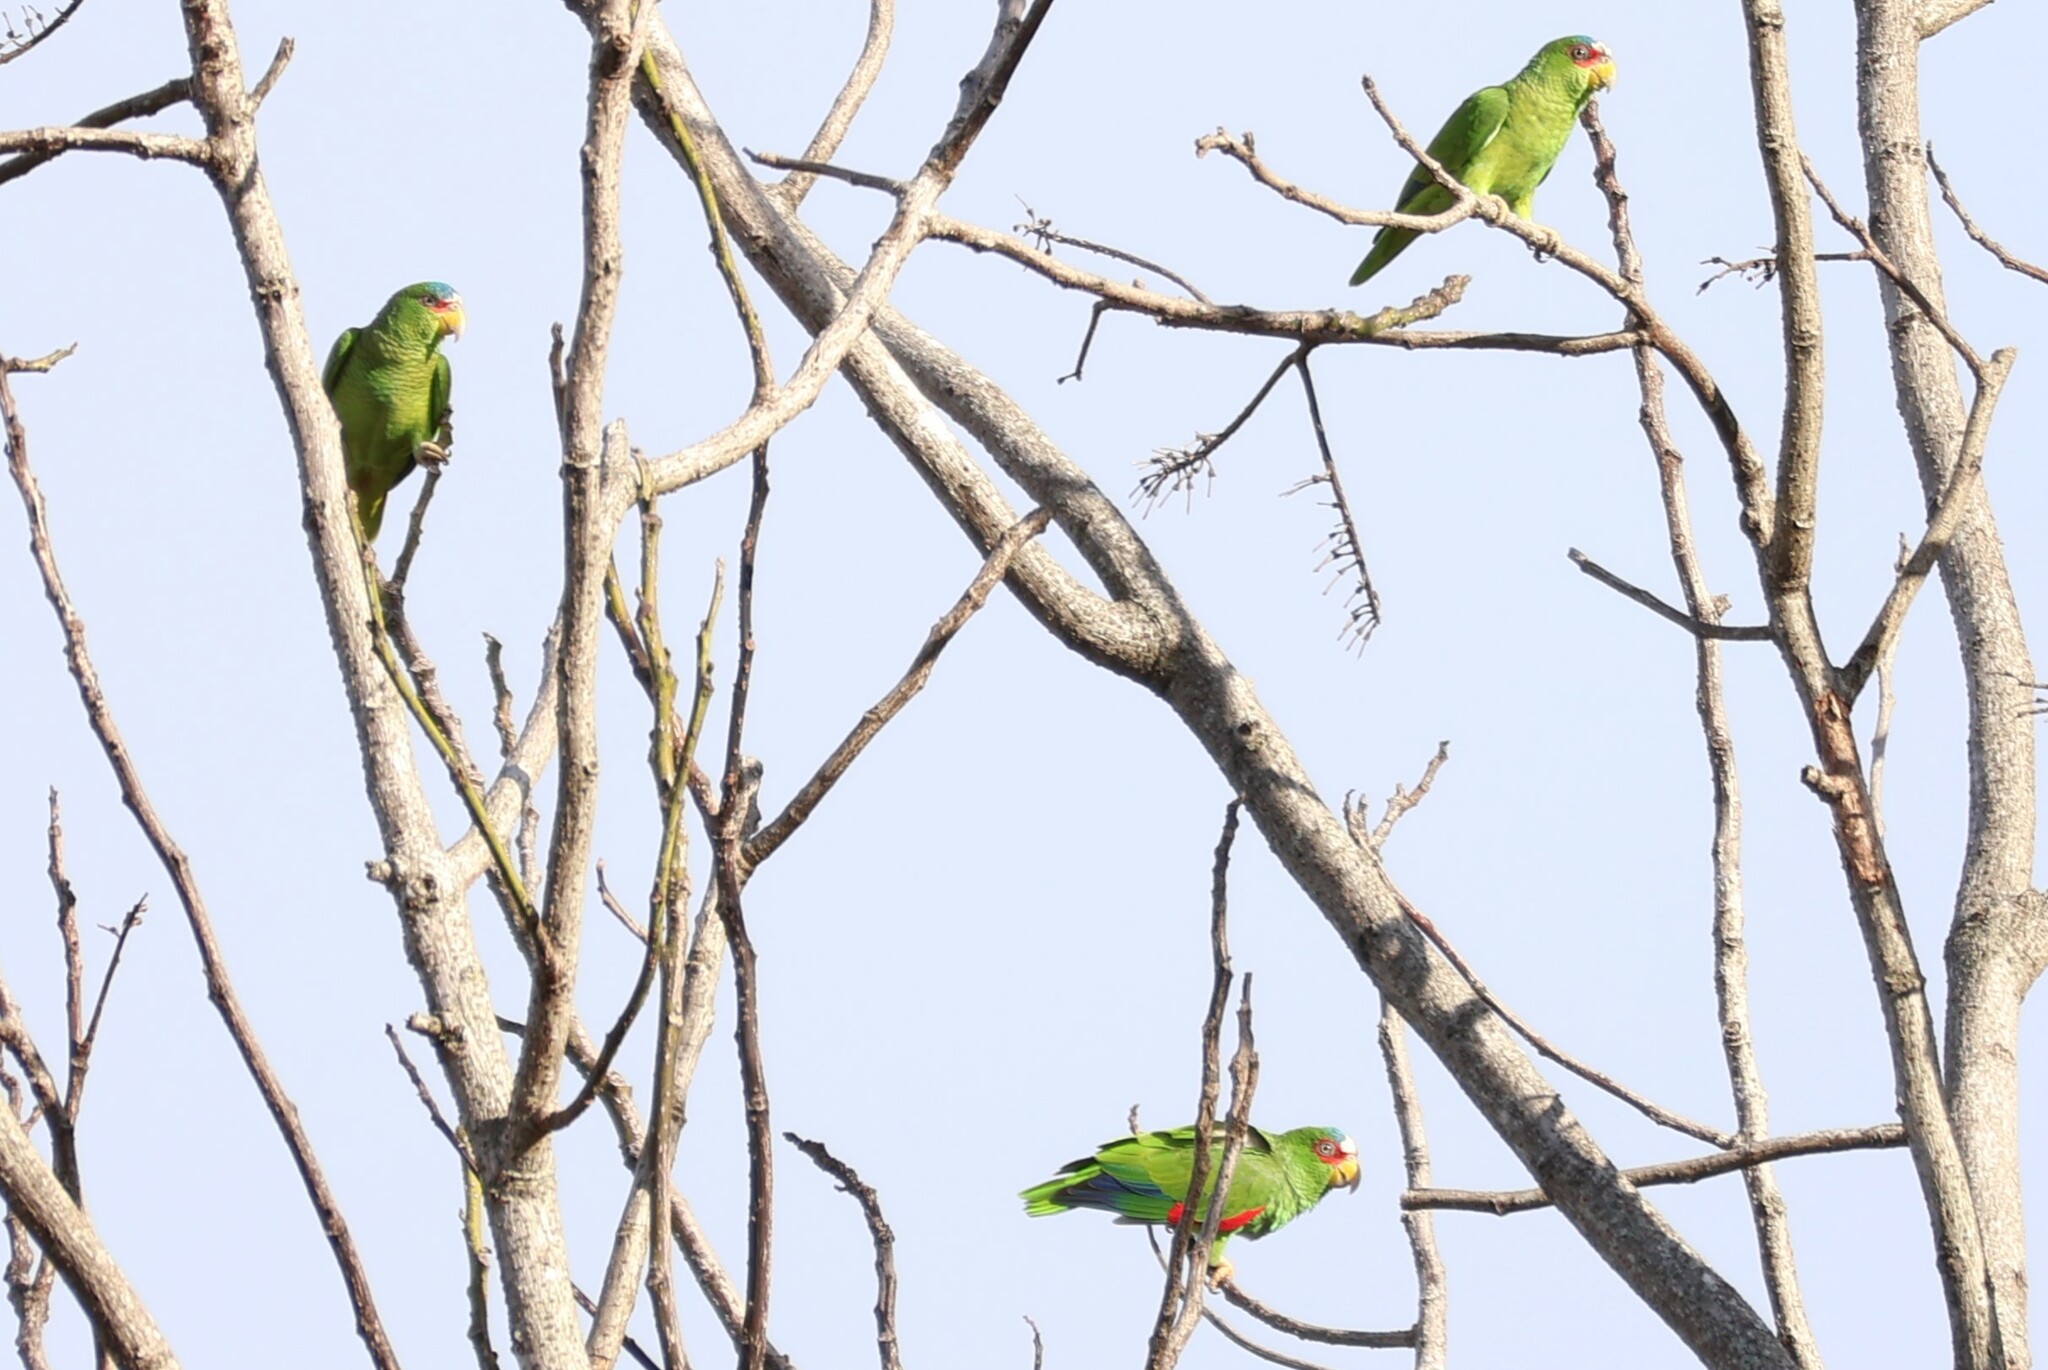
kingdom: Animalia
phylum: Chordata
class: Aves
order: Psittaciformes
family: Psittacidae
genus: Amazona
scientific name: Amazona albifrons
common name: White-fronted amazon
